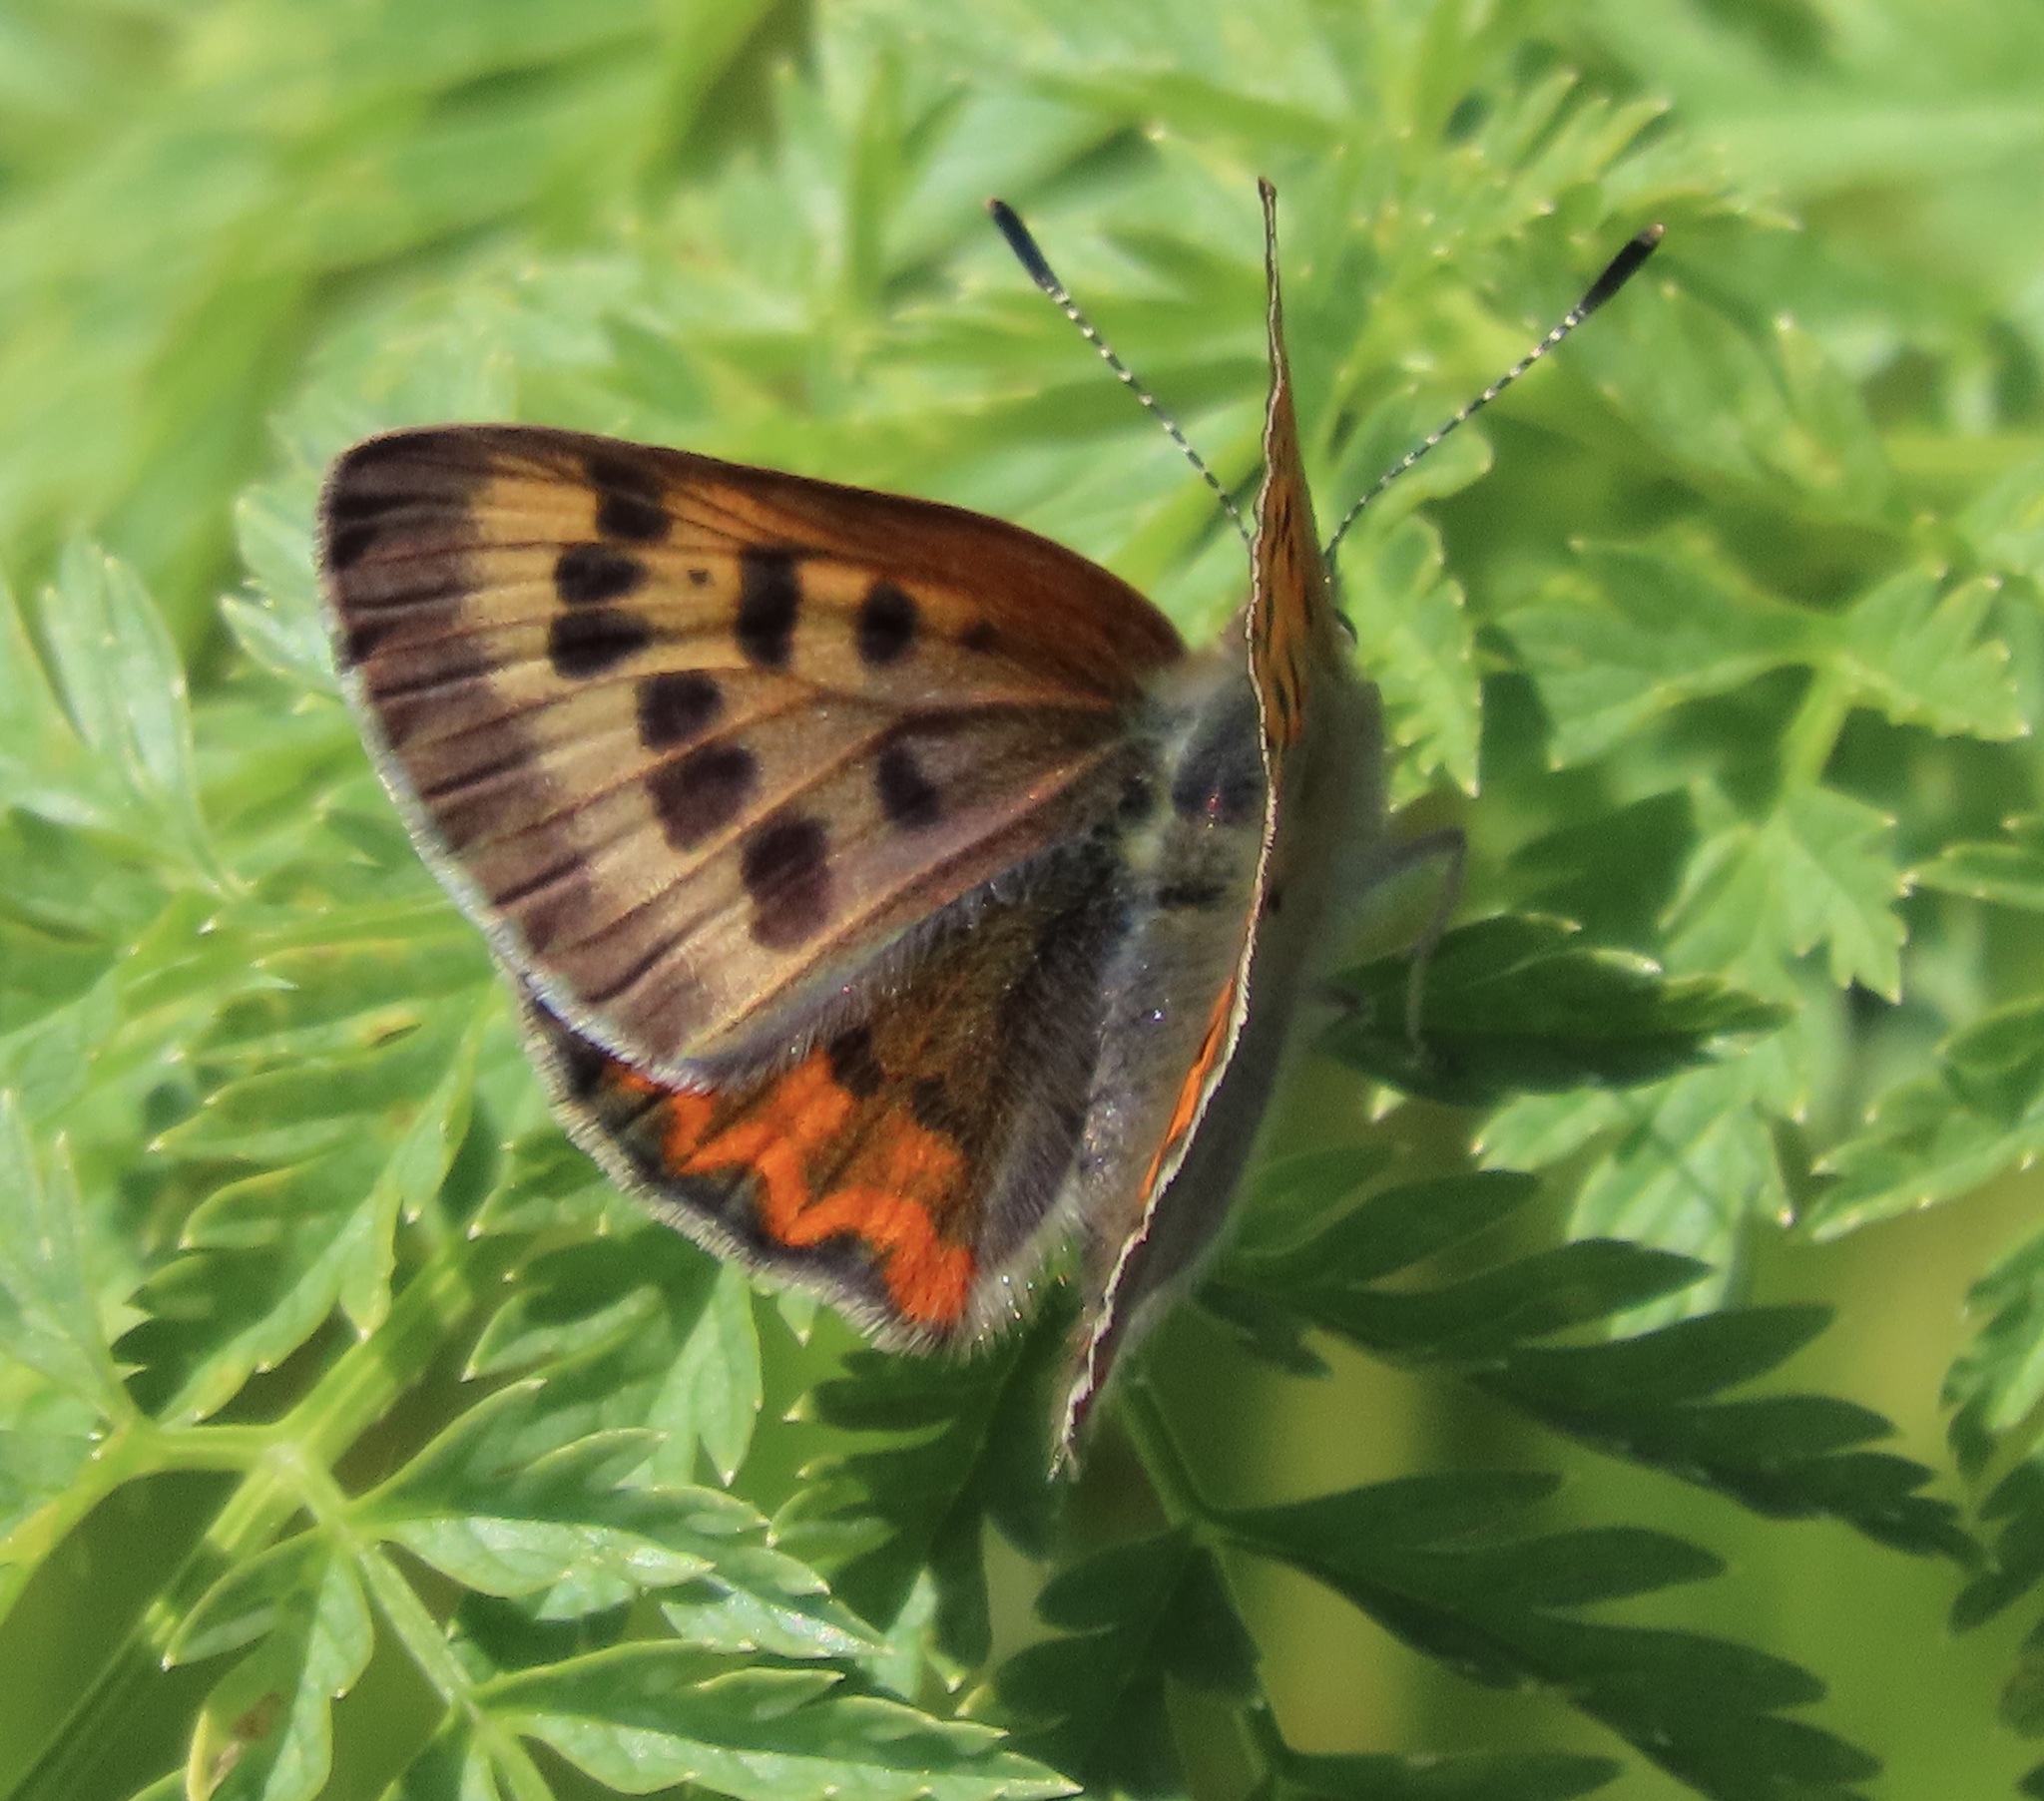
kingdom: Animalia
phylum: Arthropoda
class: Insecta
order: Lepidoptera
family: Lycaenidae
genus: Tharsalea
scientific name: Tharsalea helloides
